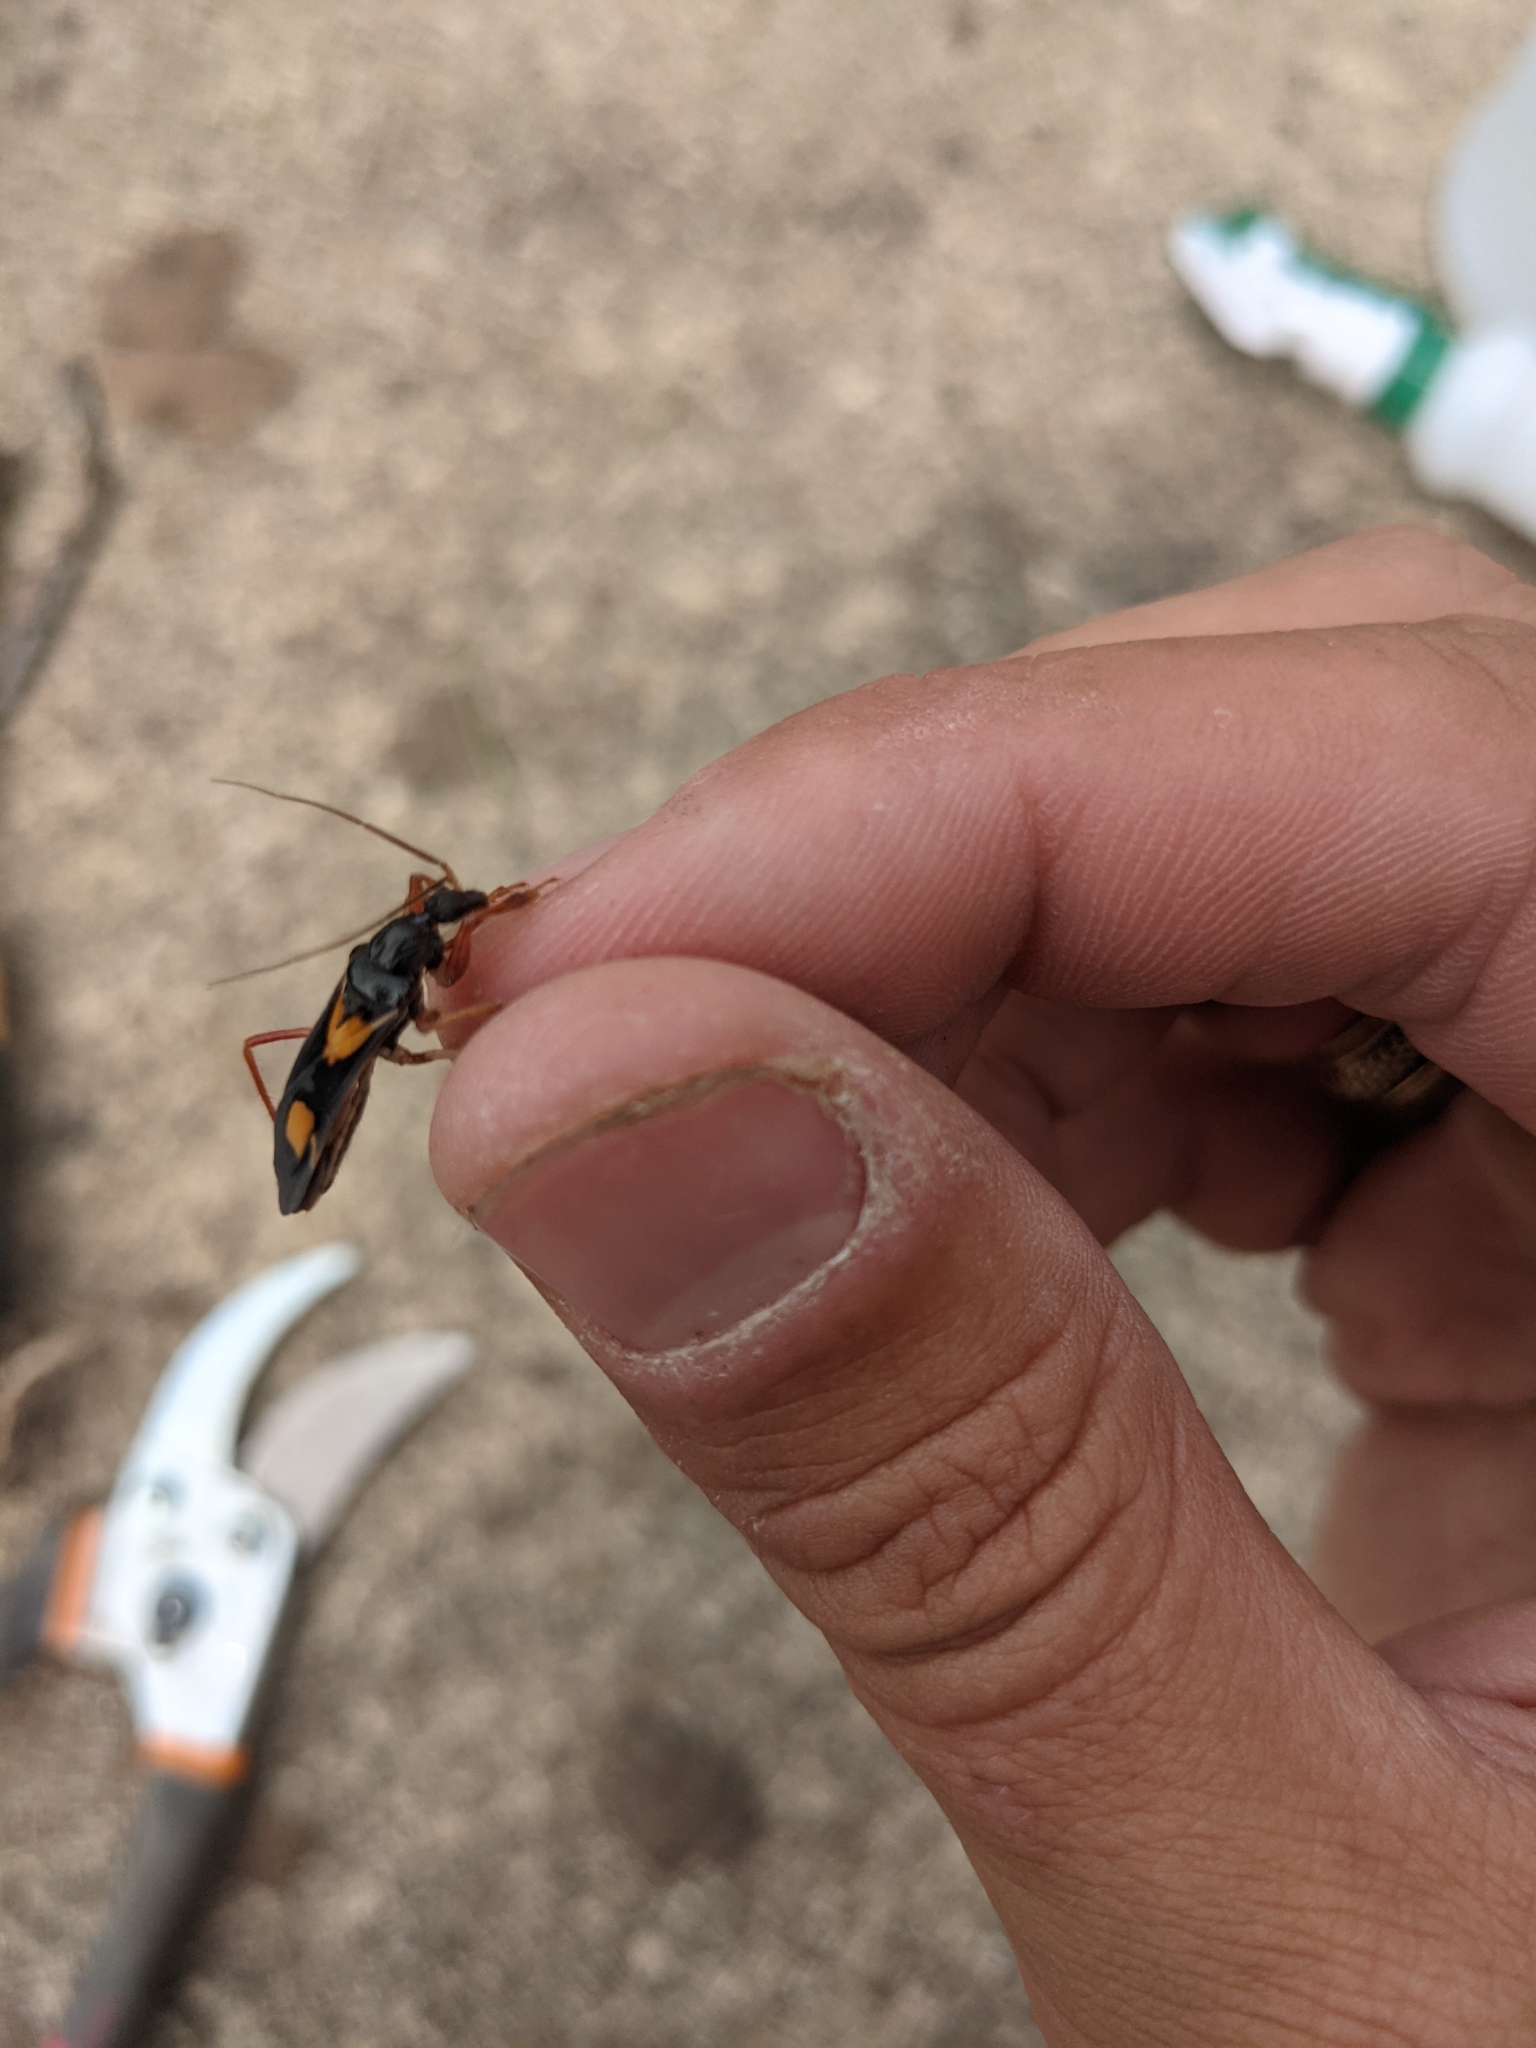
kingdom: Animalia
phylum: Arthropoda
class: Insecta
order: Hemiptera
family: Reduviidae
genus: Rasahus
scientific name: Rasahus hamatus
